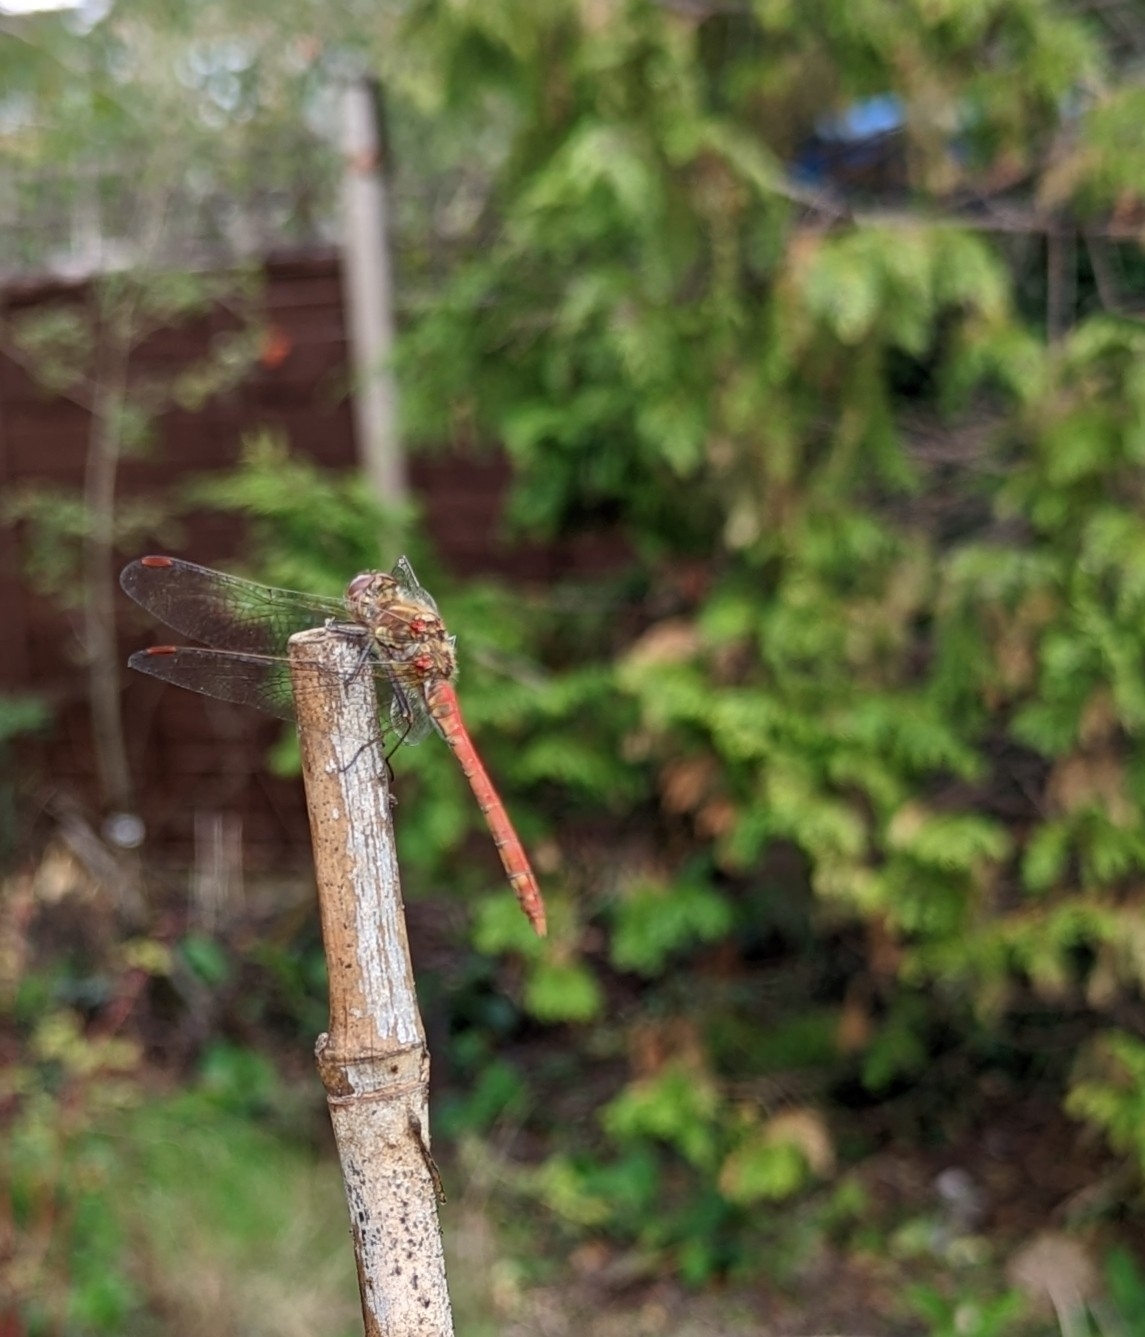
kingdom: Animalia
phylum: Arthropoda
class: Insecta
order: Odonata
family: Libellulidae
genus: Sympetrum
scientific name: Sympetrum striolatum
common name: Common darter
